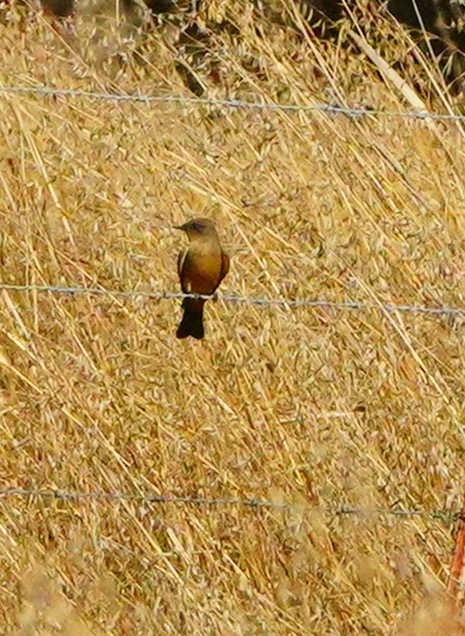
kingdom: Animalia
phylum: Chordata
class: Aves
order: Passeriformes
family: Tyrannidae
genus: Sayornis
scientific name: Sayornis saya
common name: Say's phoebe
